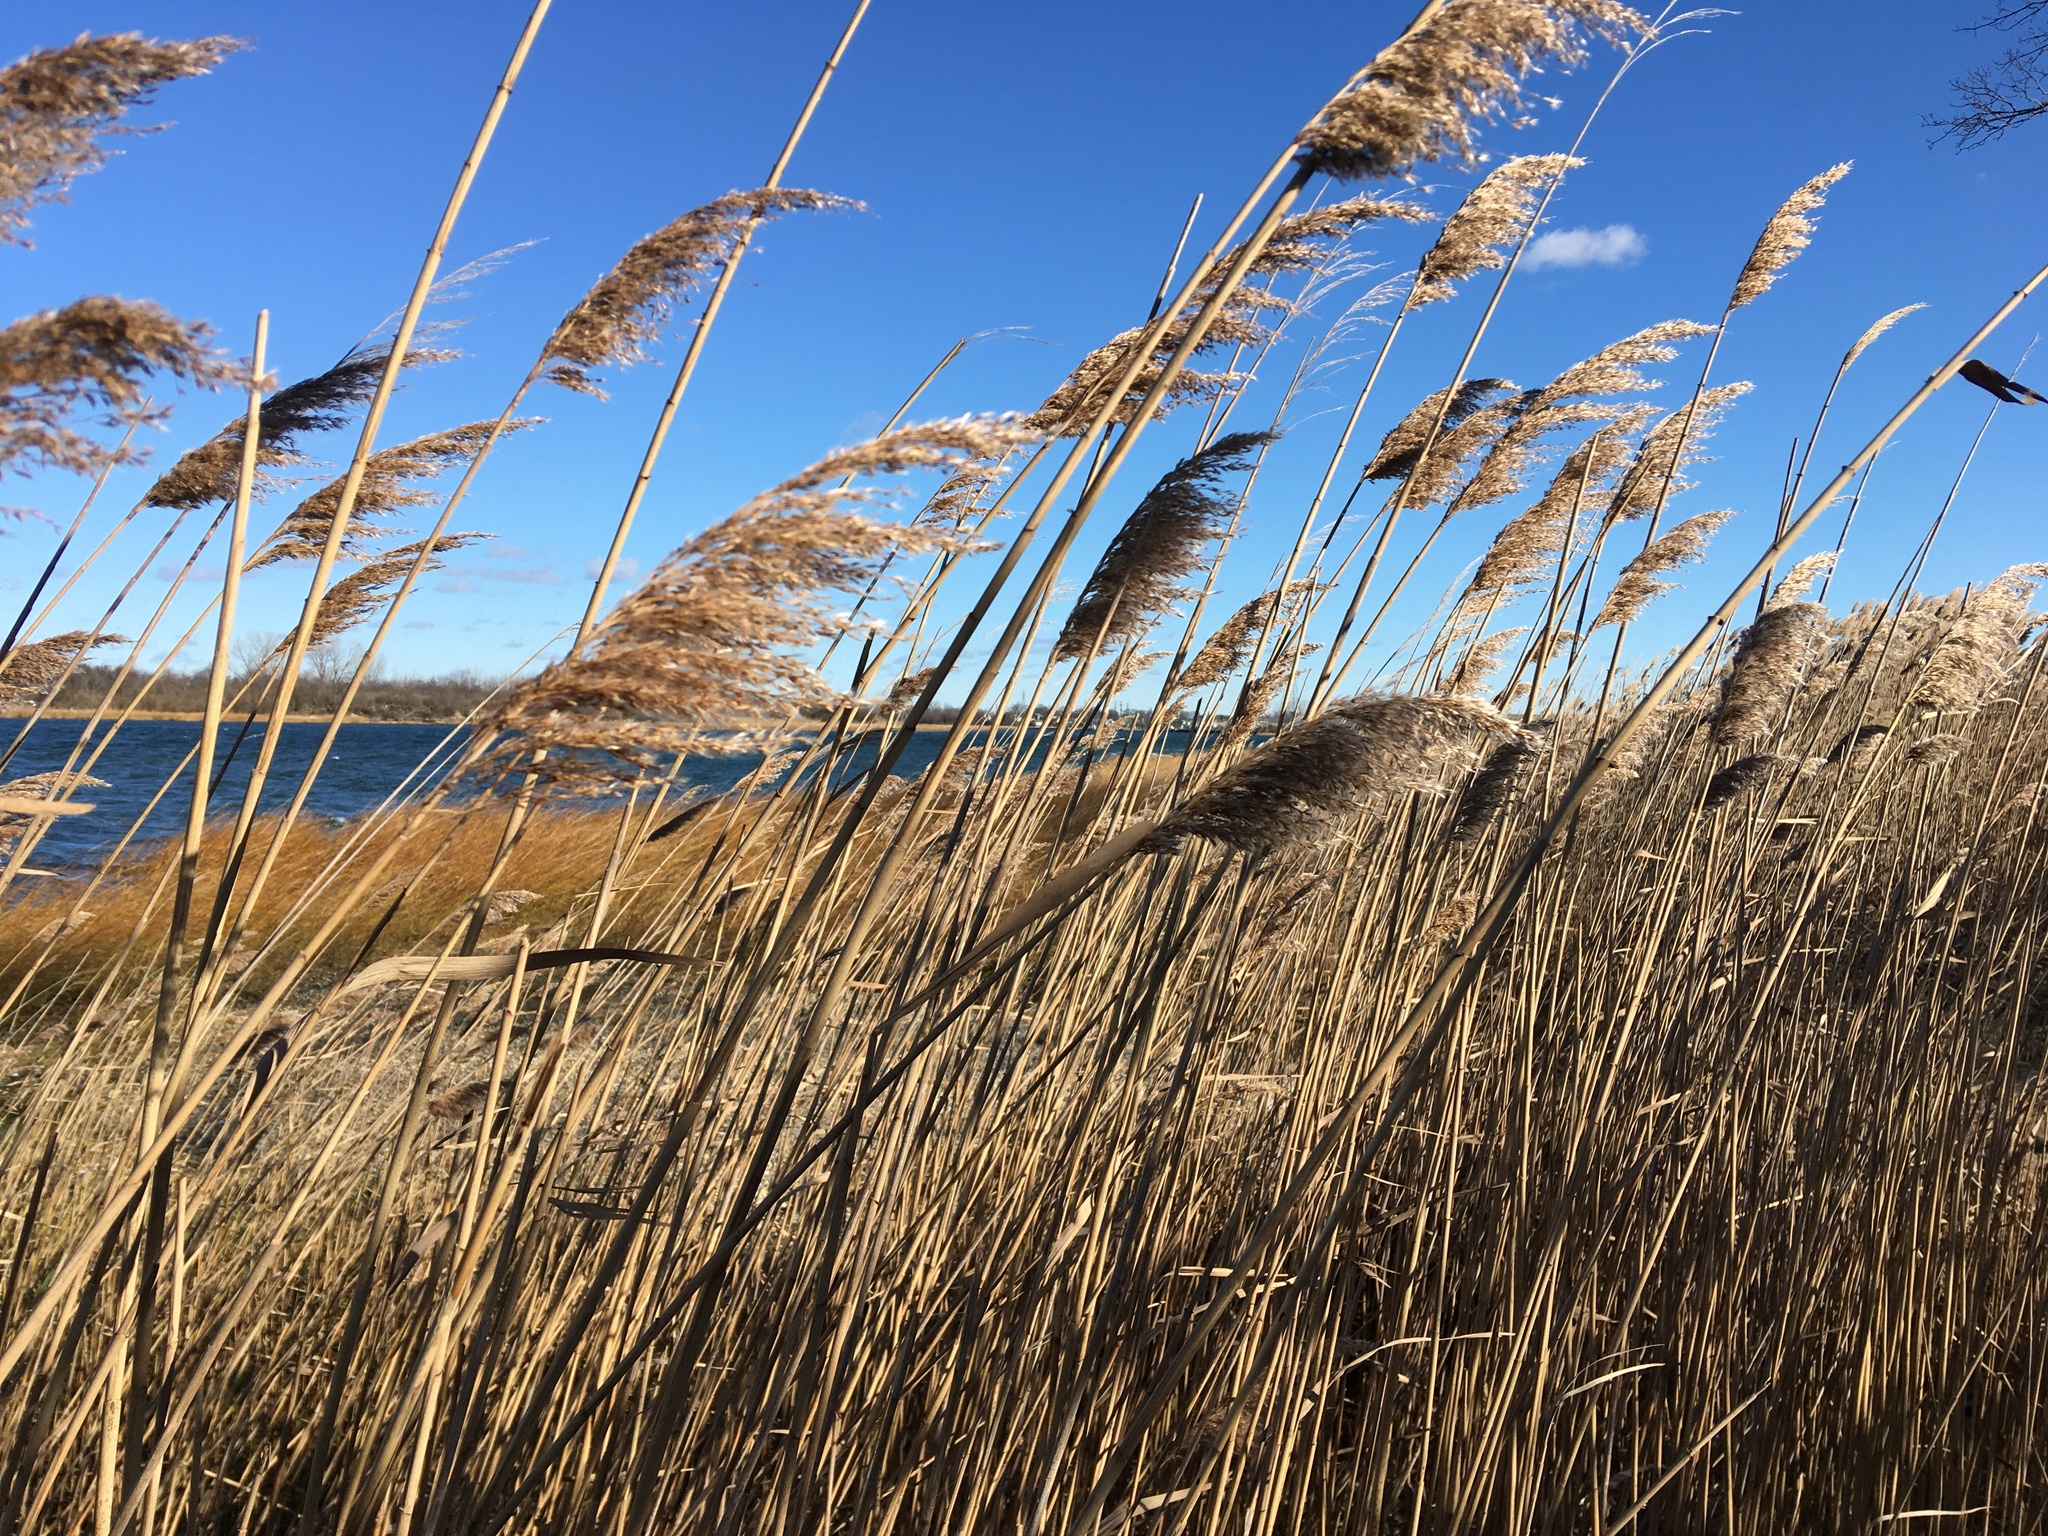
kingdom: Plantae
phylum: Tracheophyta
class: Liliopsida
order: Poales
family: Poaceae
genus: Phragmites
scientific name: Phragmites australis
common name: Common reed
